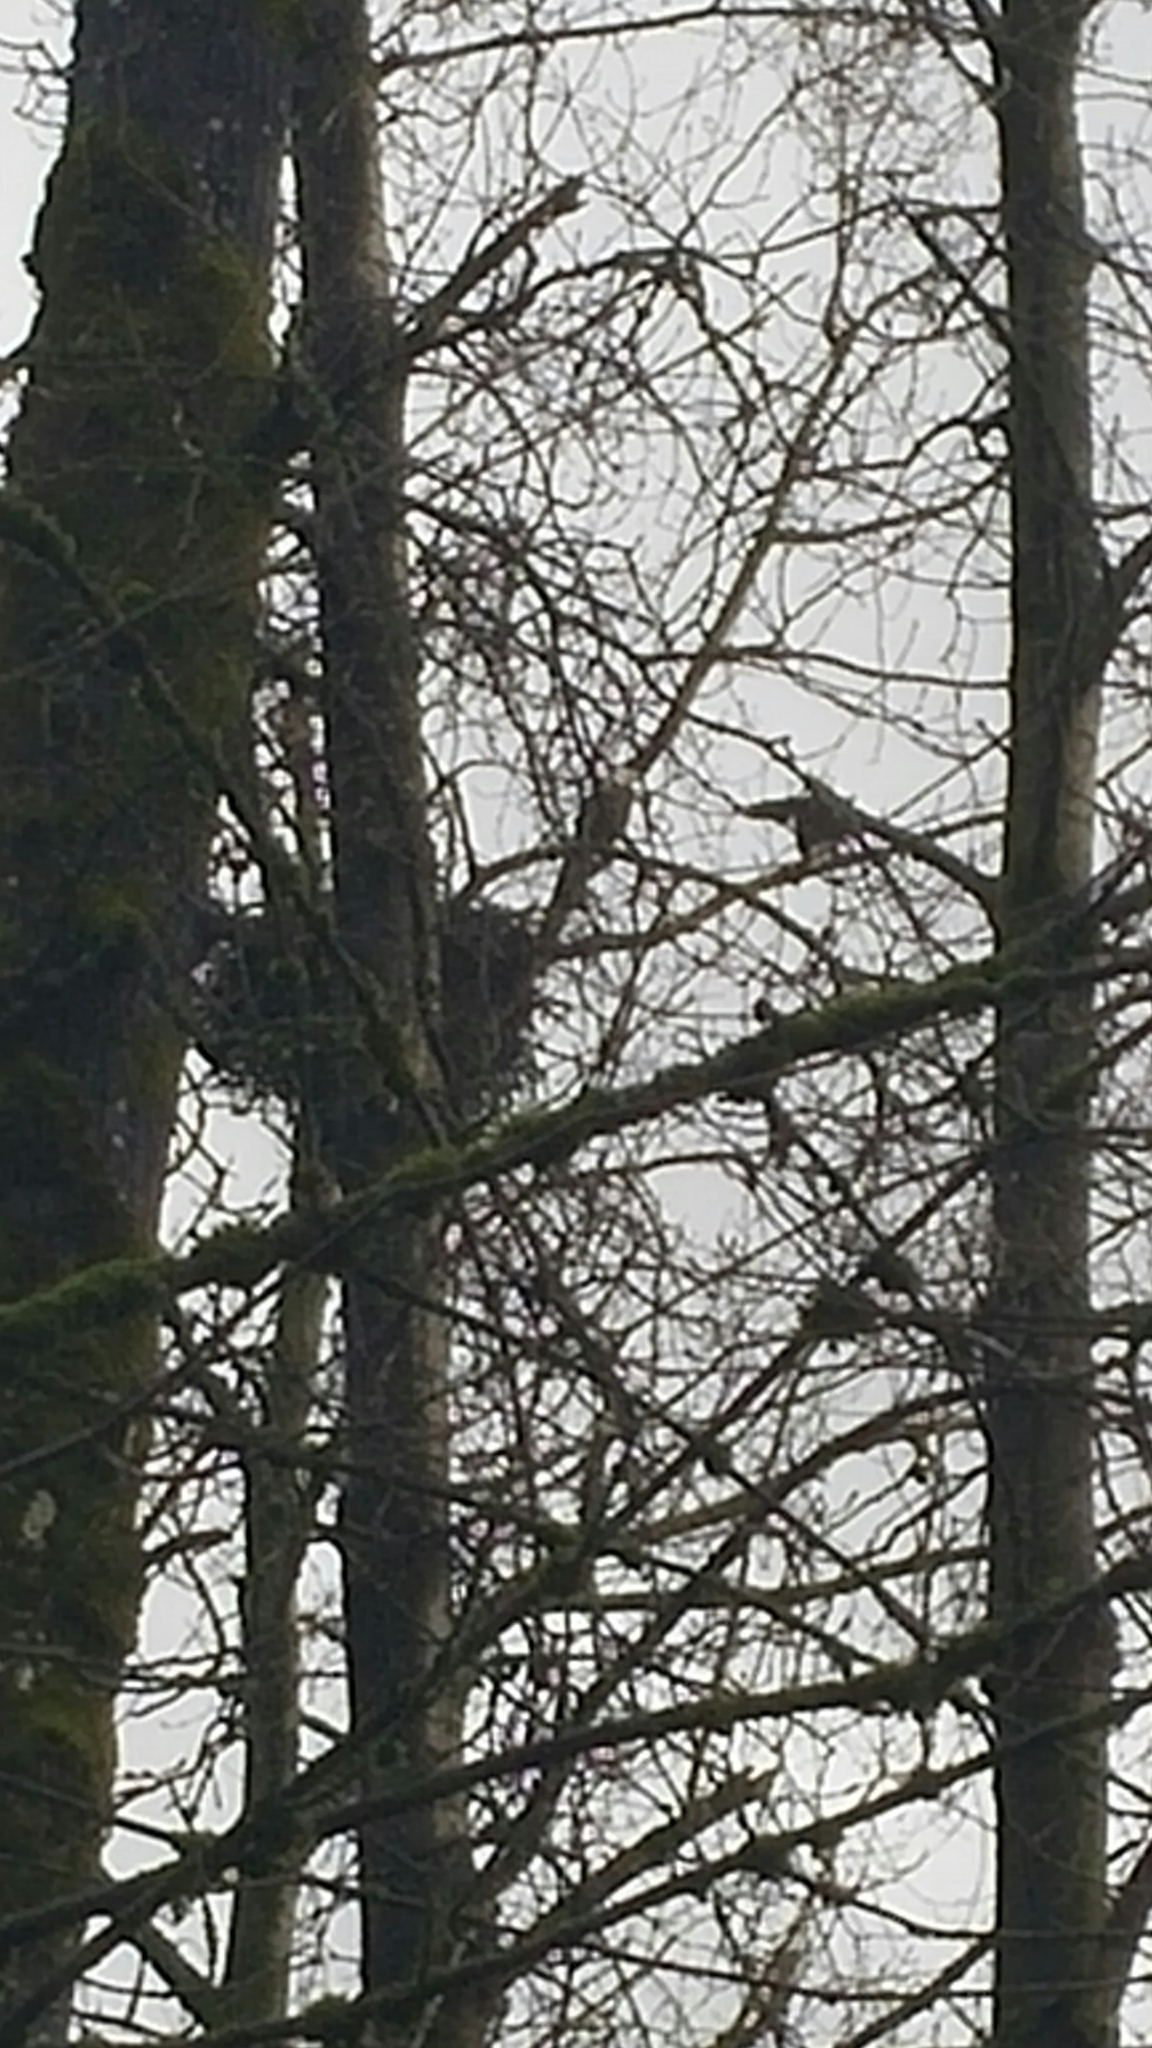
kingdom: Animalia
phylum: Chordata
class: Aves
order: Accipitriformes
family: Accipitridae
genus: Haliaeetus
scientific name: Haliaeetus leucocephalus
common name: Bald eagle
